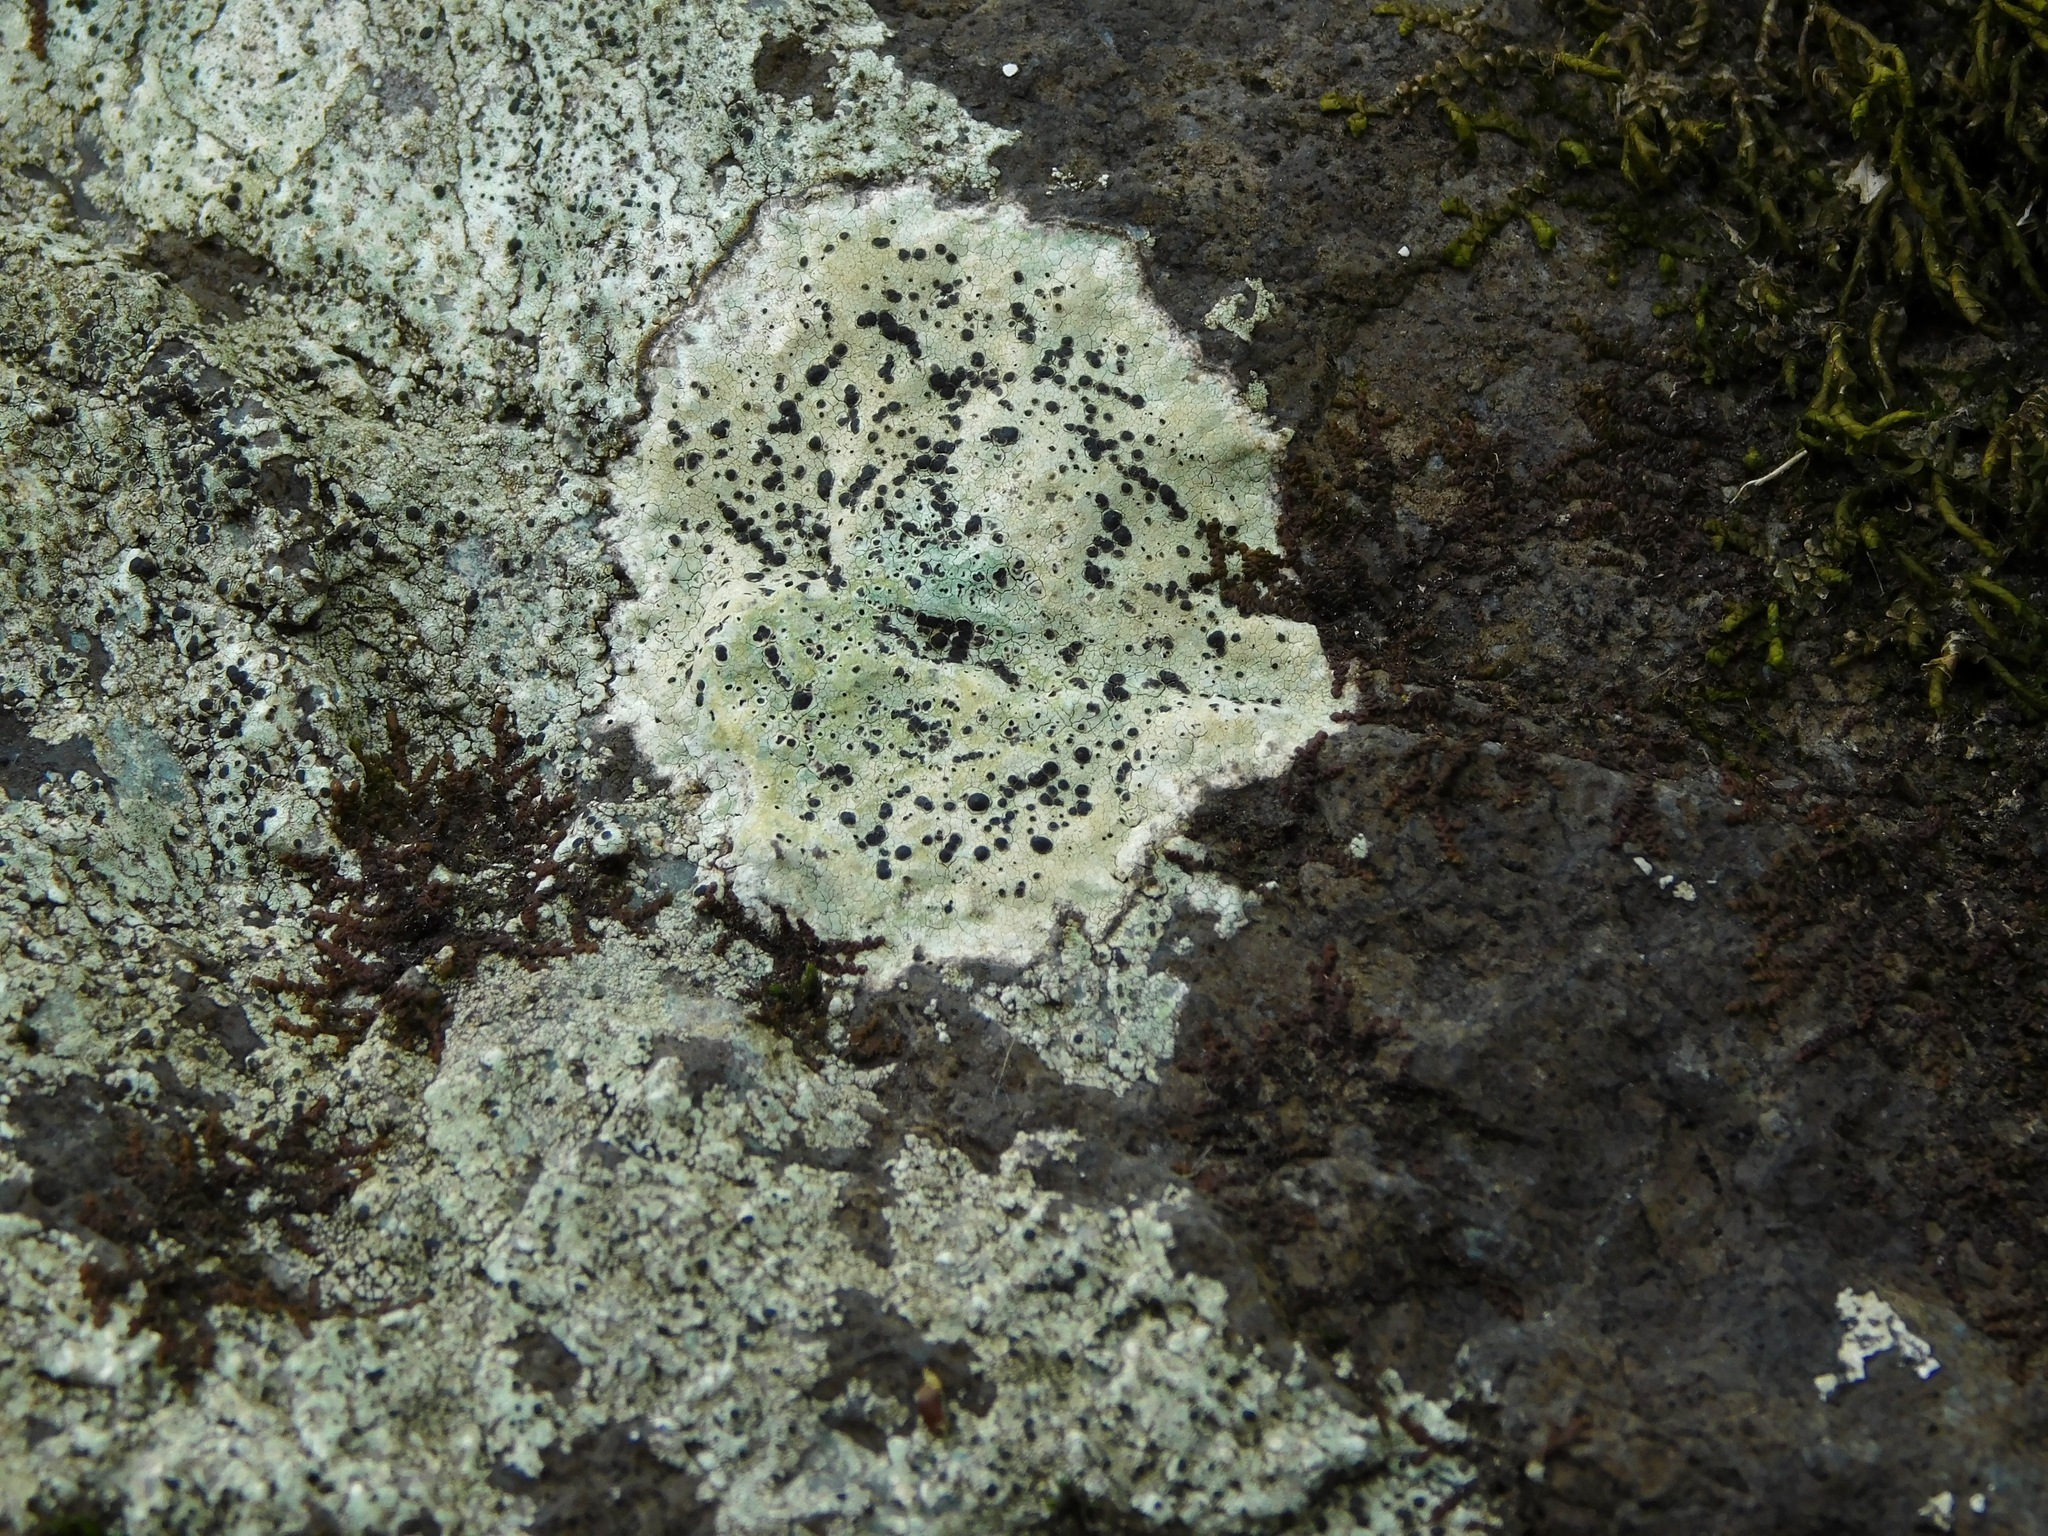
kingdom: Fungi
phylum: Ascomycota
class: Lecanoromycetes
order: Caliciales
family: Caliciaceae
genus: Buellia
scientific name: Buellia mamillana
